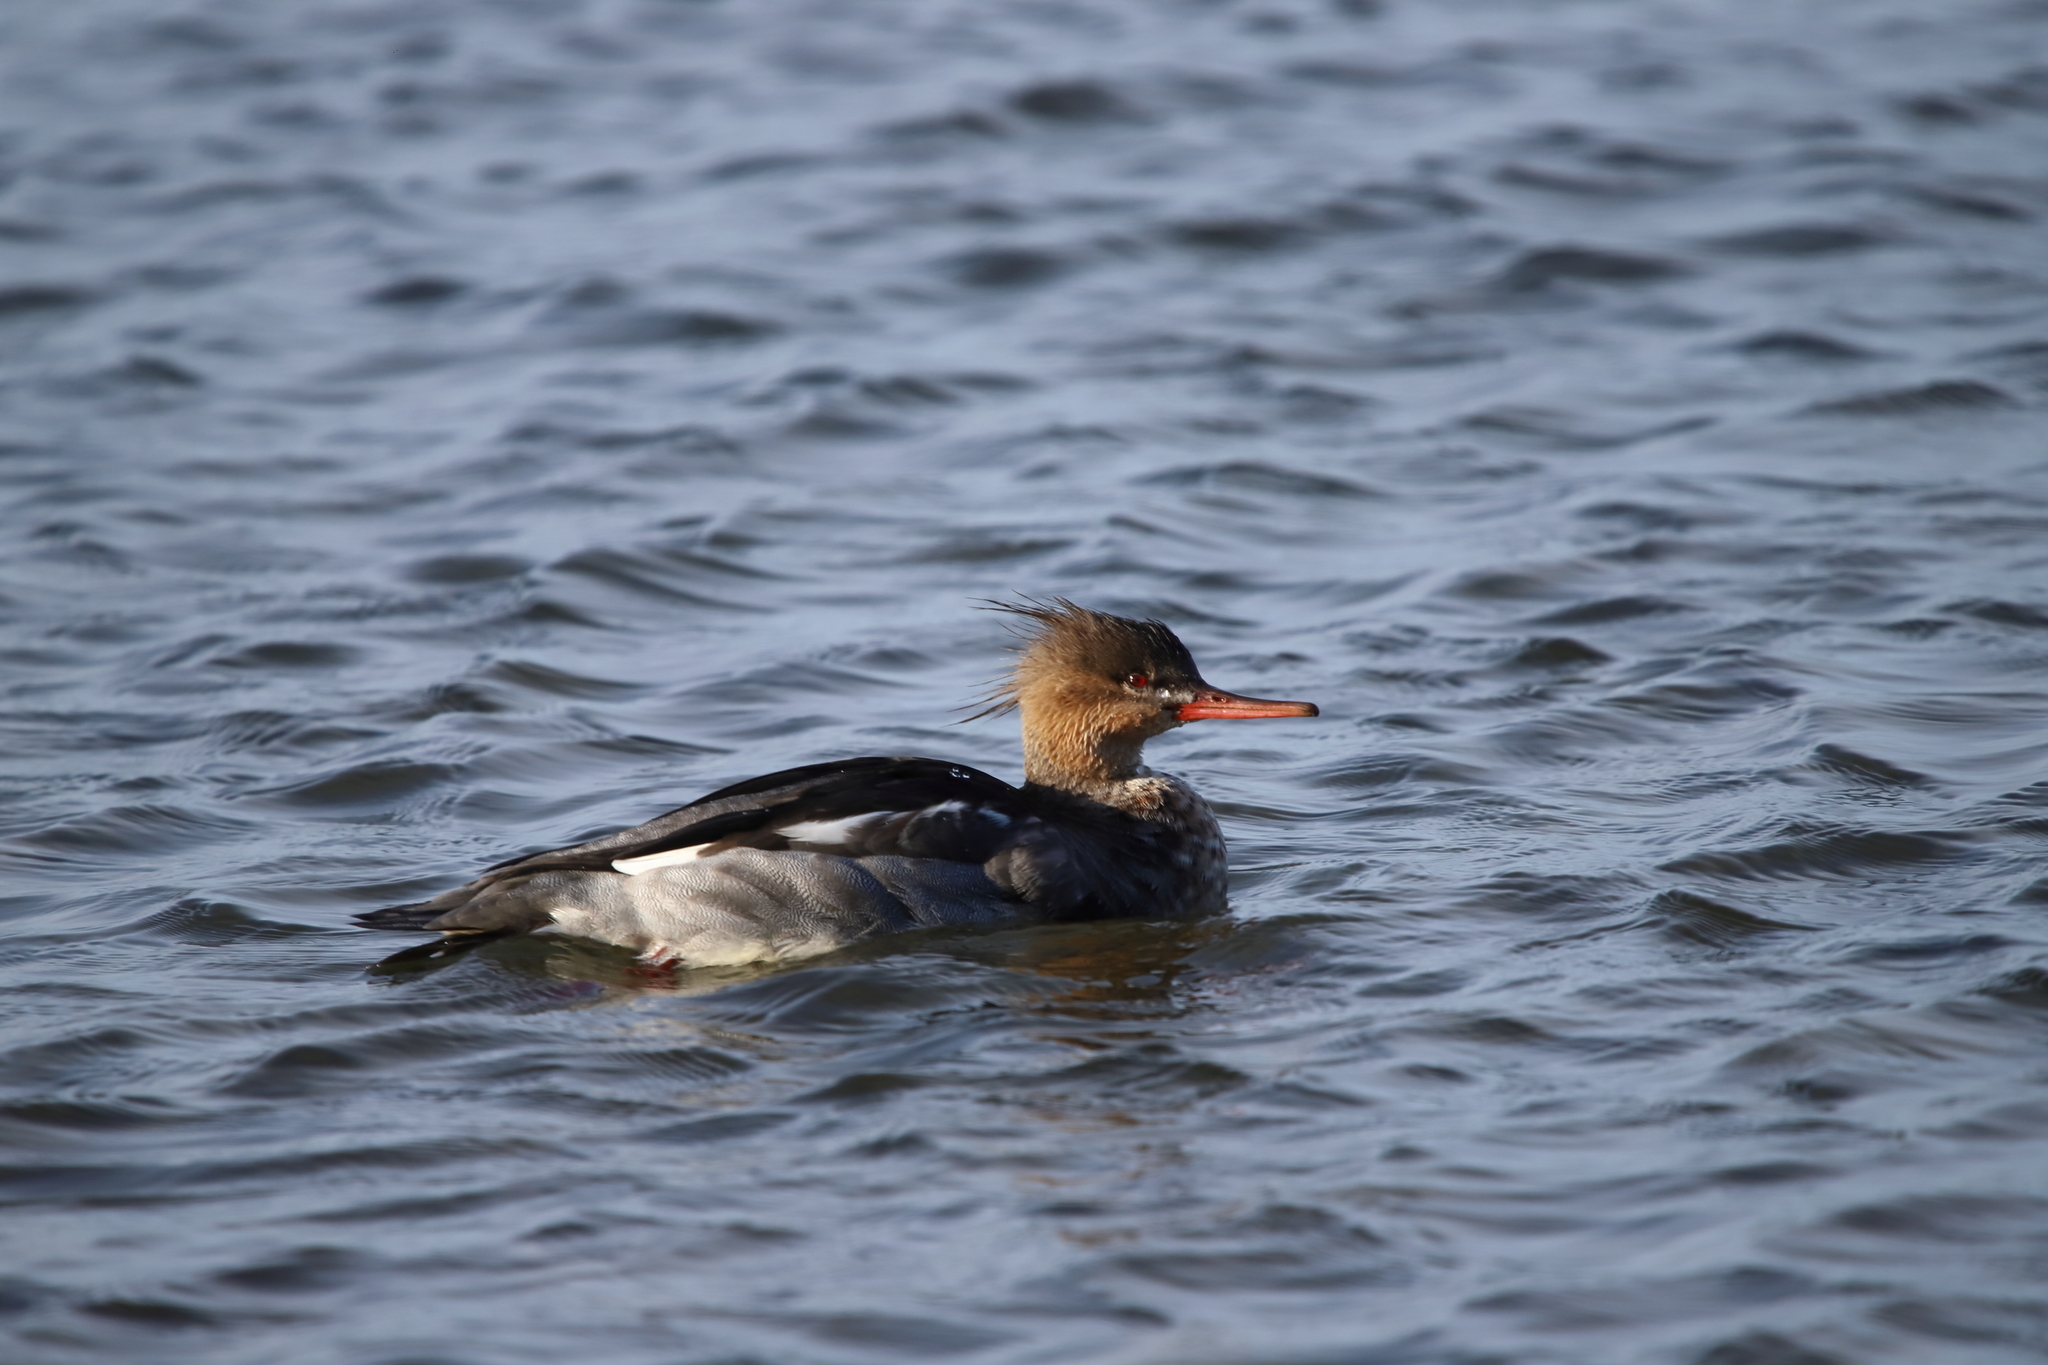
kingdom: Animalia
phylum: Chordata
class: Aves
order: Anseriformes
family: Anatidae
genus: Mergus
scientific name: Mergus serrator
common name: Red-breasted merganser
